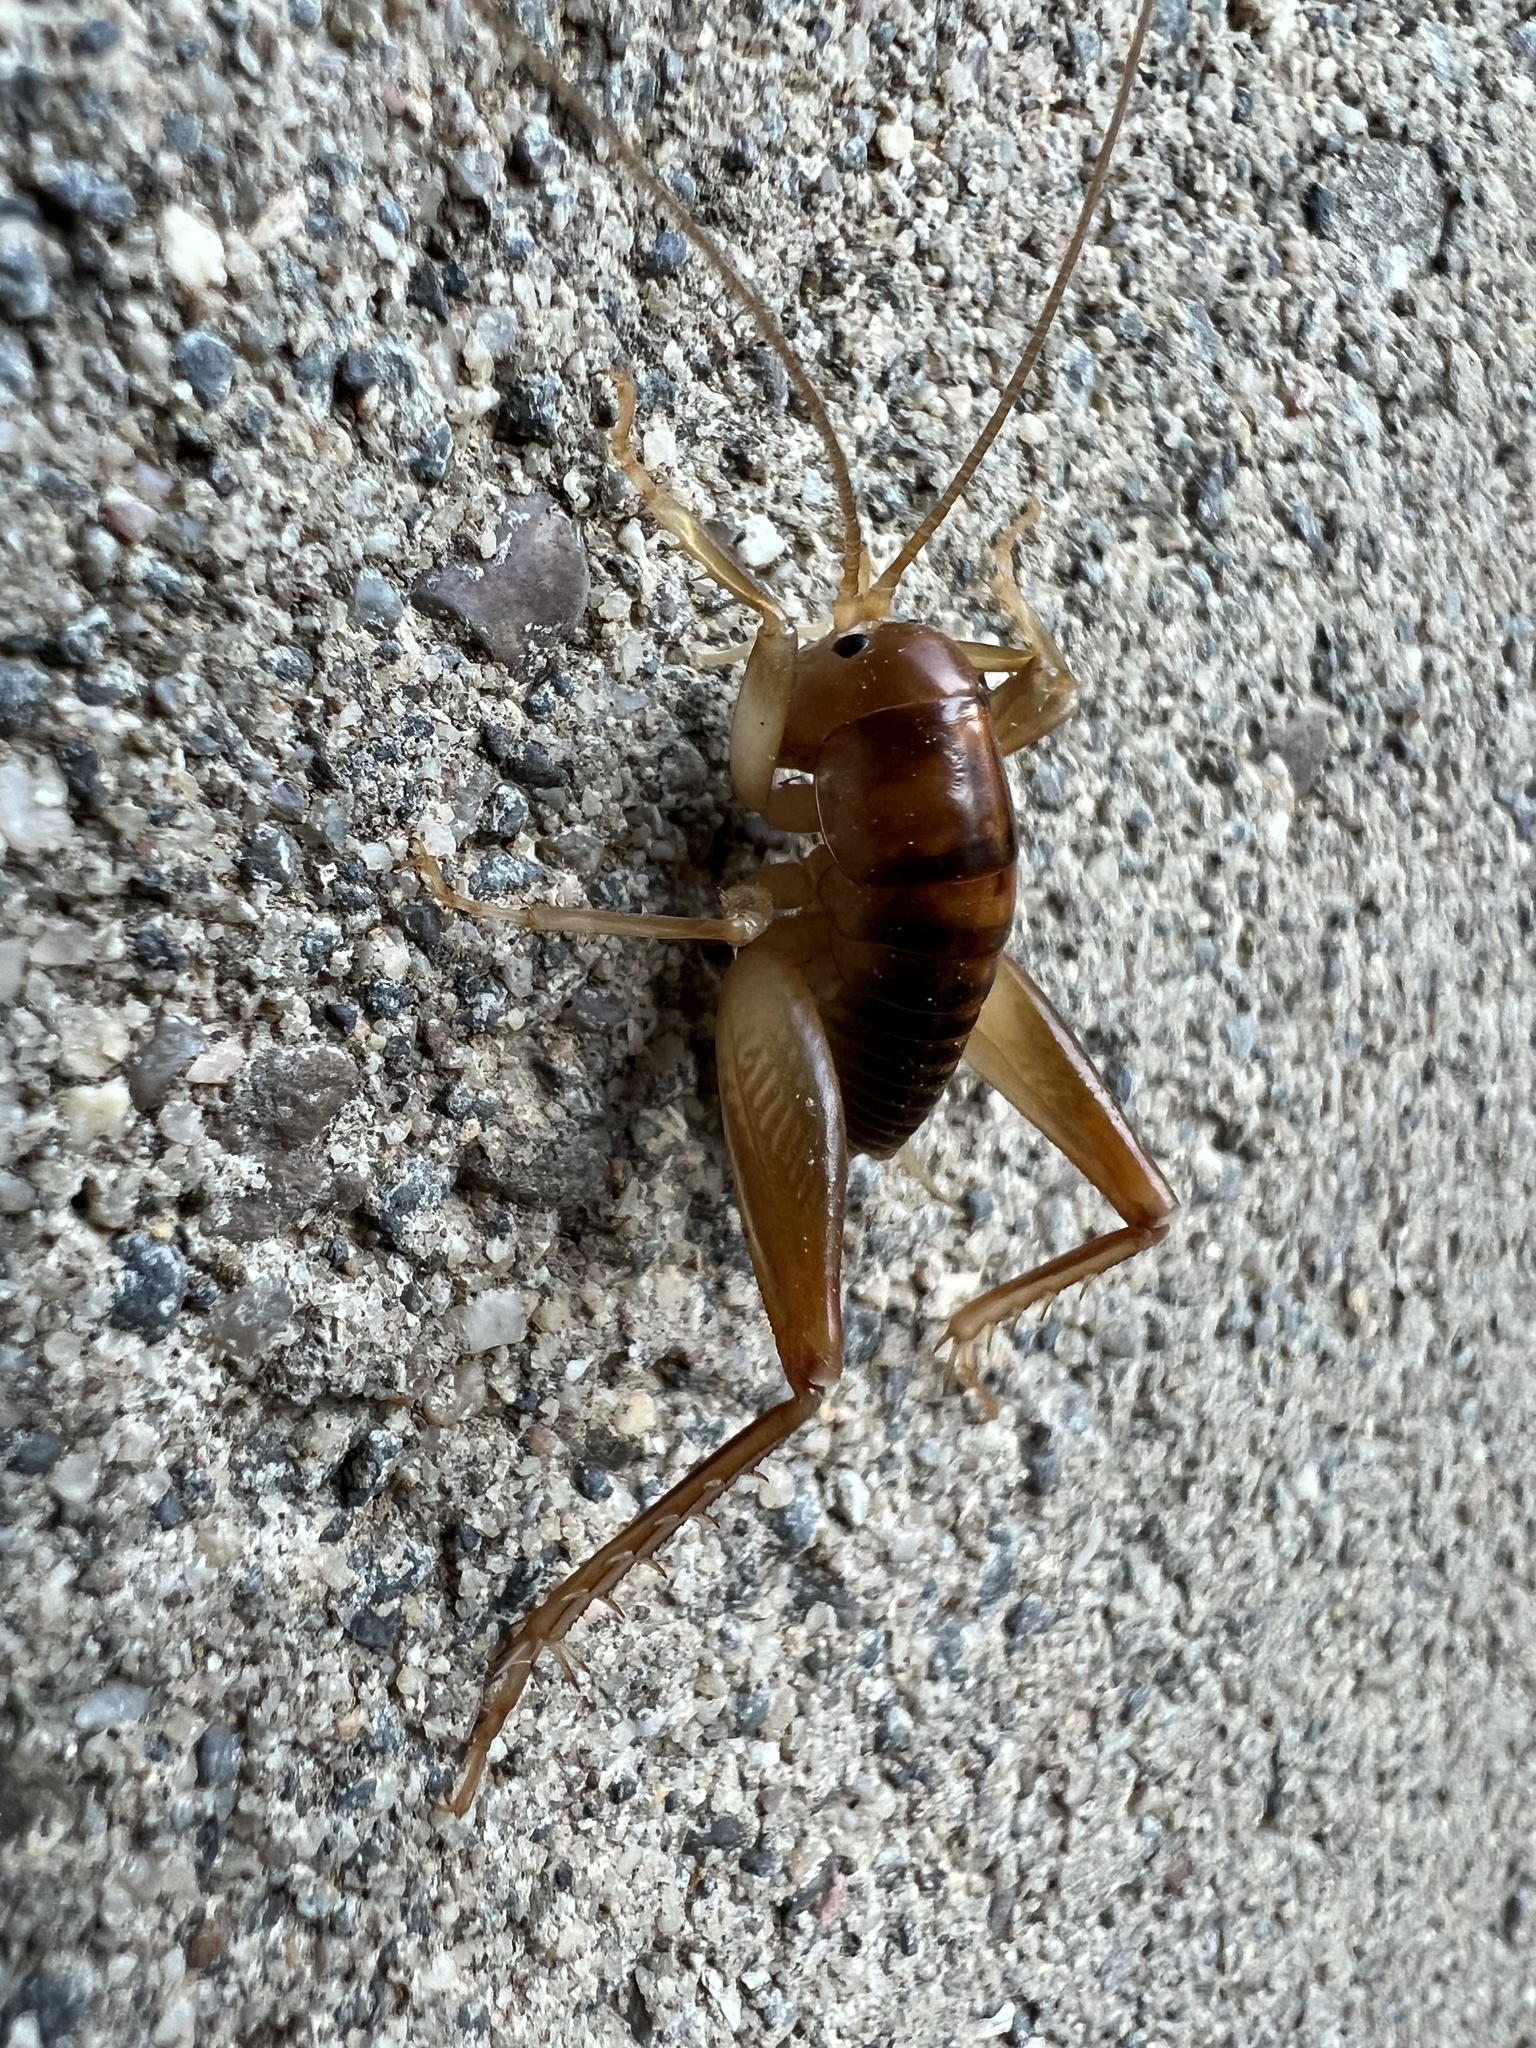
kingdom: Animalia
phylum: Arthropoda
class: Insecta
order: Orthoptera
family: Rhaphidophoridae
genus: Ceuthophilus
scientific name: Ceuthophilus californianus
